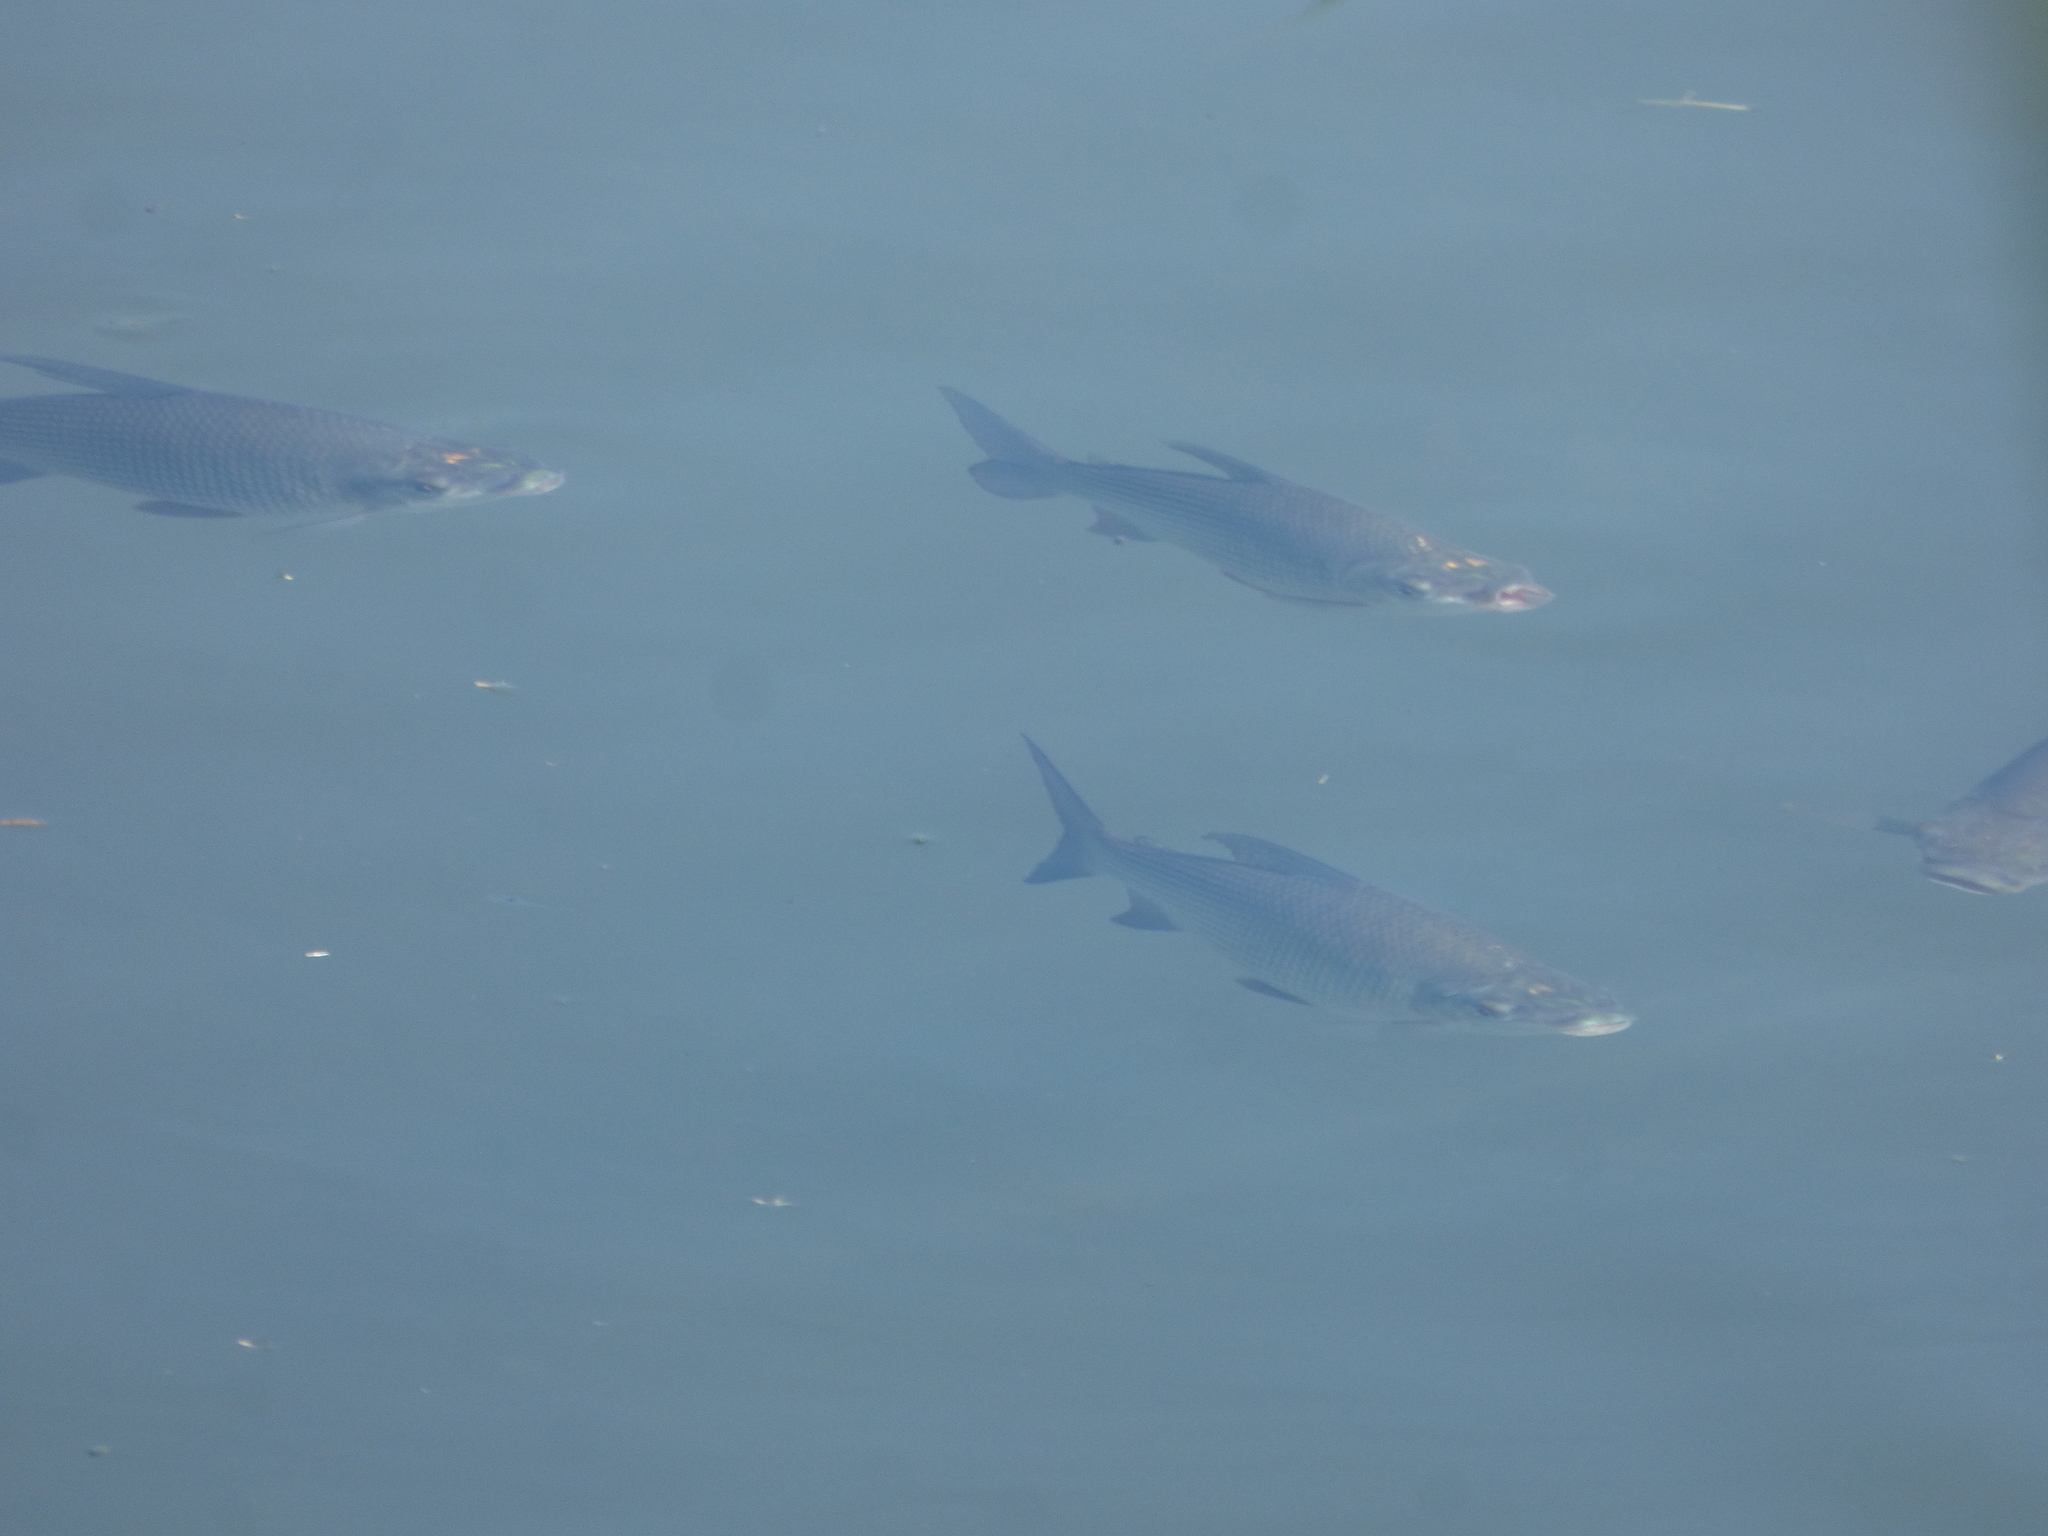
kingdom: Animalia
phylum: Chordata
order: Characiformes
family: Prochilodontidae
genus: Prochilodus
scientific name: Prochilodus lineatus
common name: Curimbata
